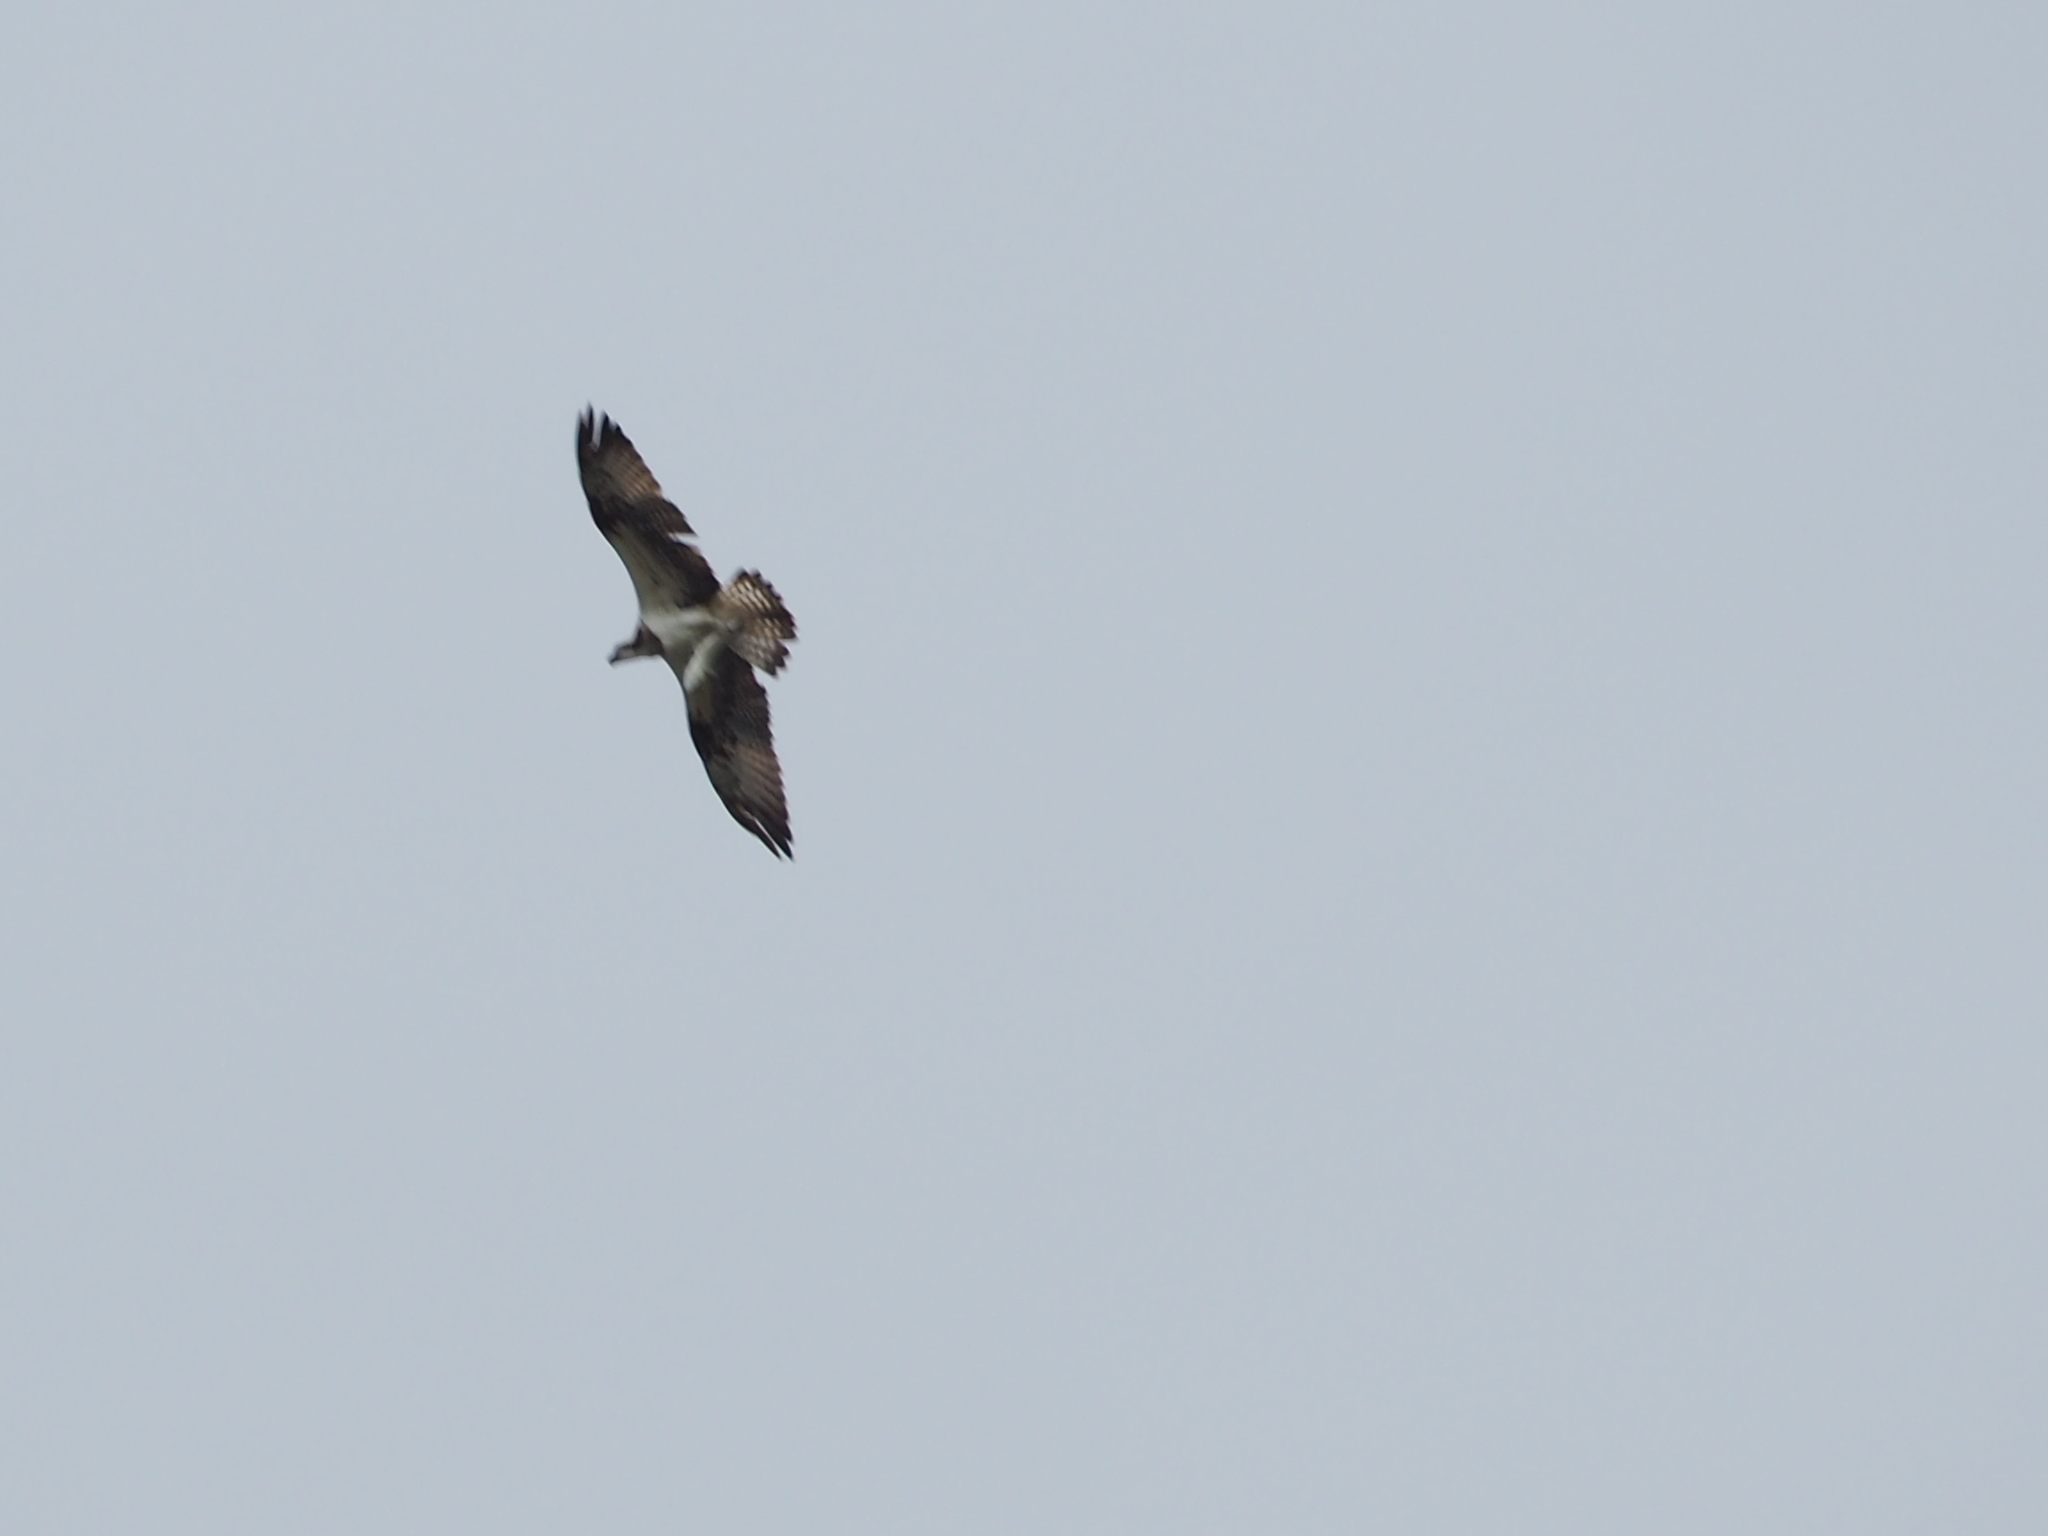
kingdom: Animalia
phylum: Chordata
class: Aves
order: Accipitriformes
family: Pandionidae
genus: Pandion
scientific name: Pandion haliaetus
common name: Osprey
